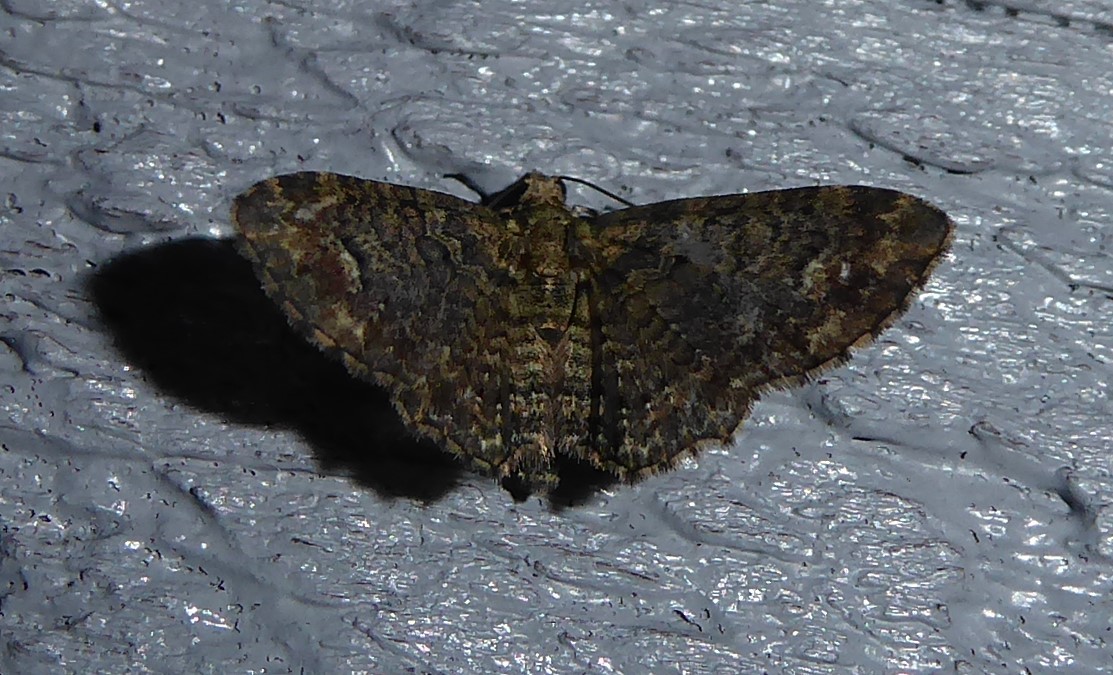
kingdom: Animalia
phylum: Arthropoda
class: Insecta
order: Lepidoptera
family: Geometridae
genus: Pasiphilodes
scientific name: Pasiphilodes testulata
